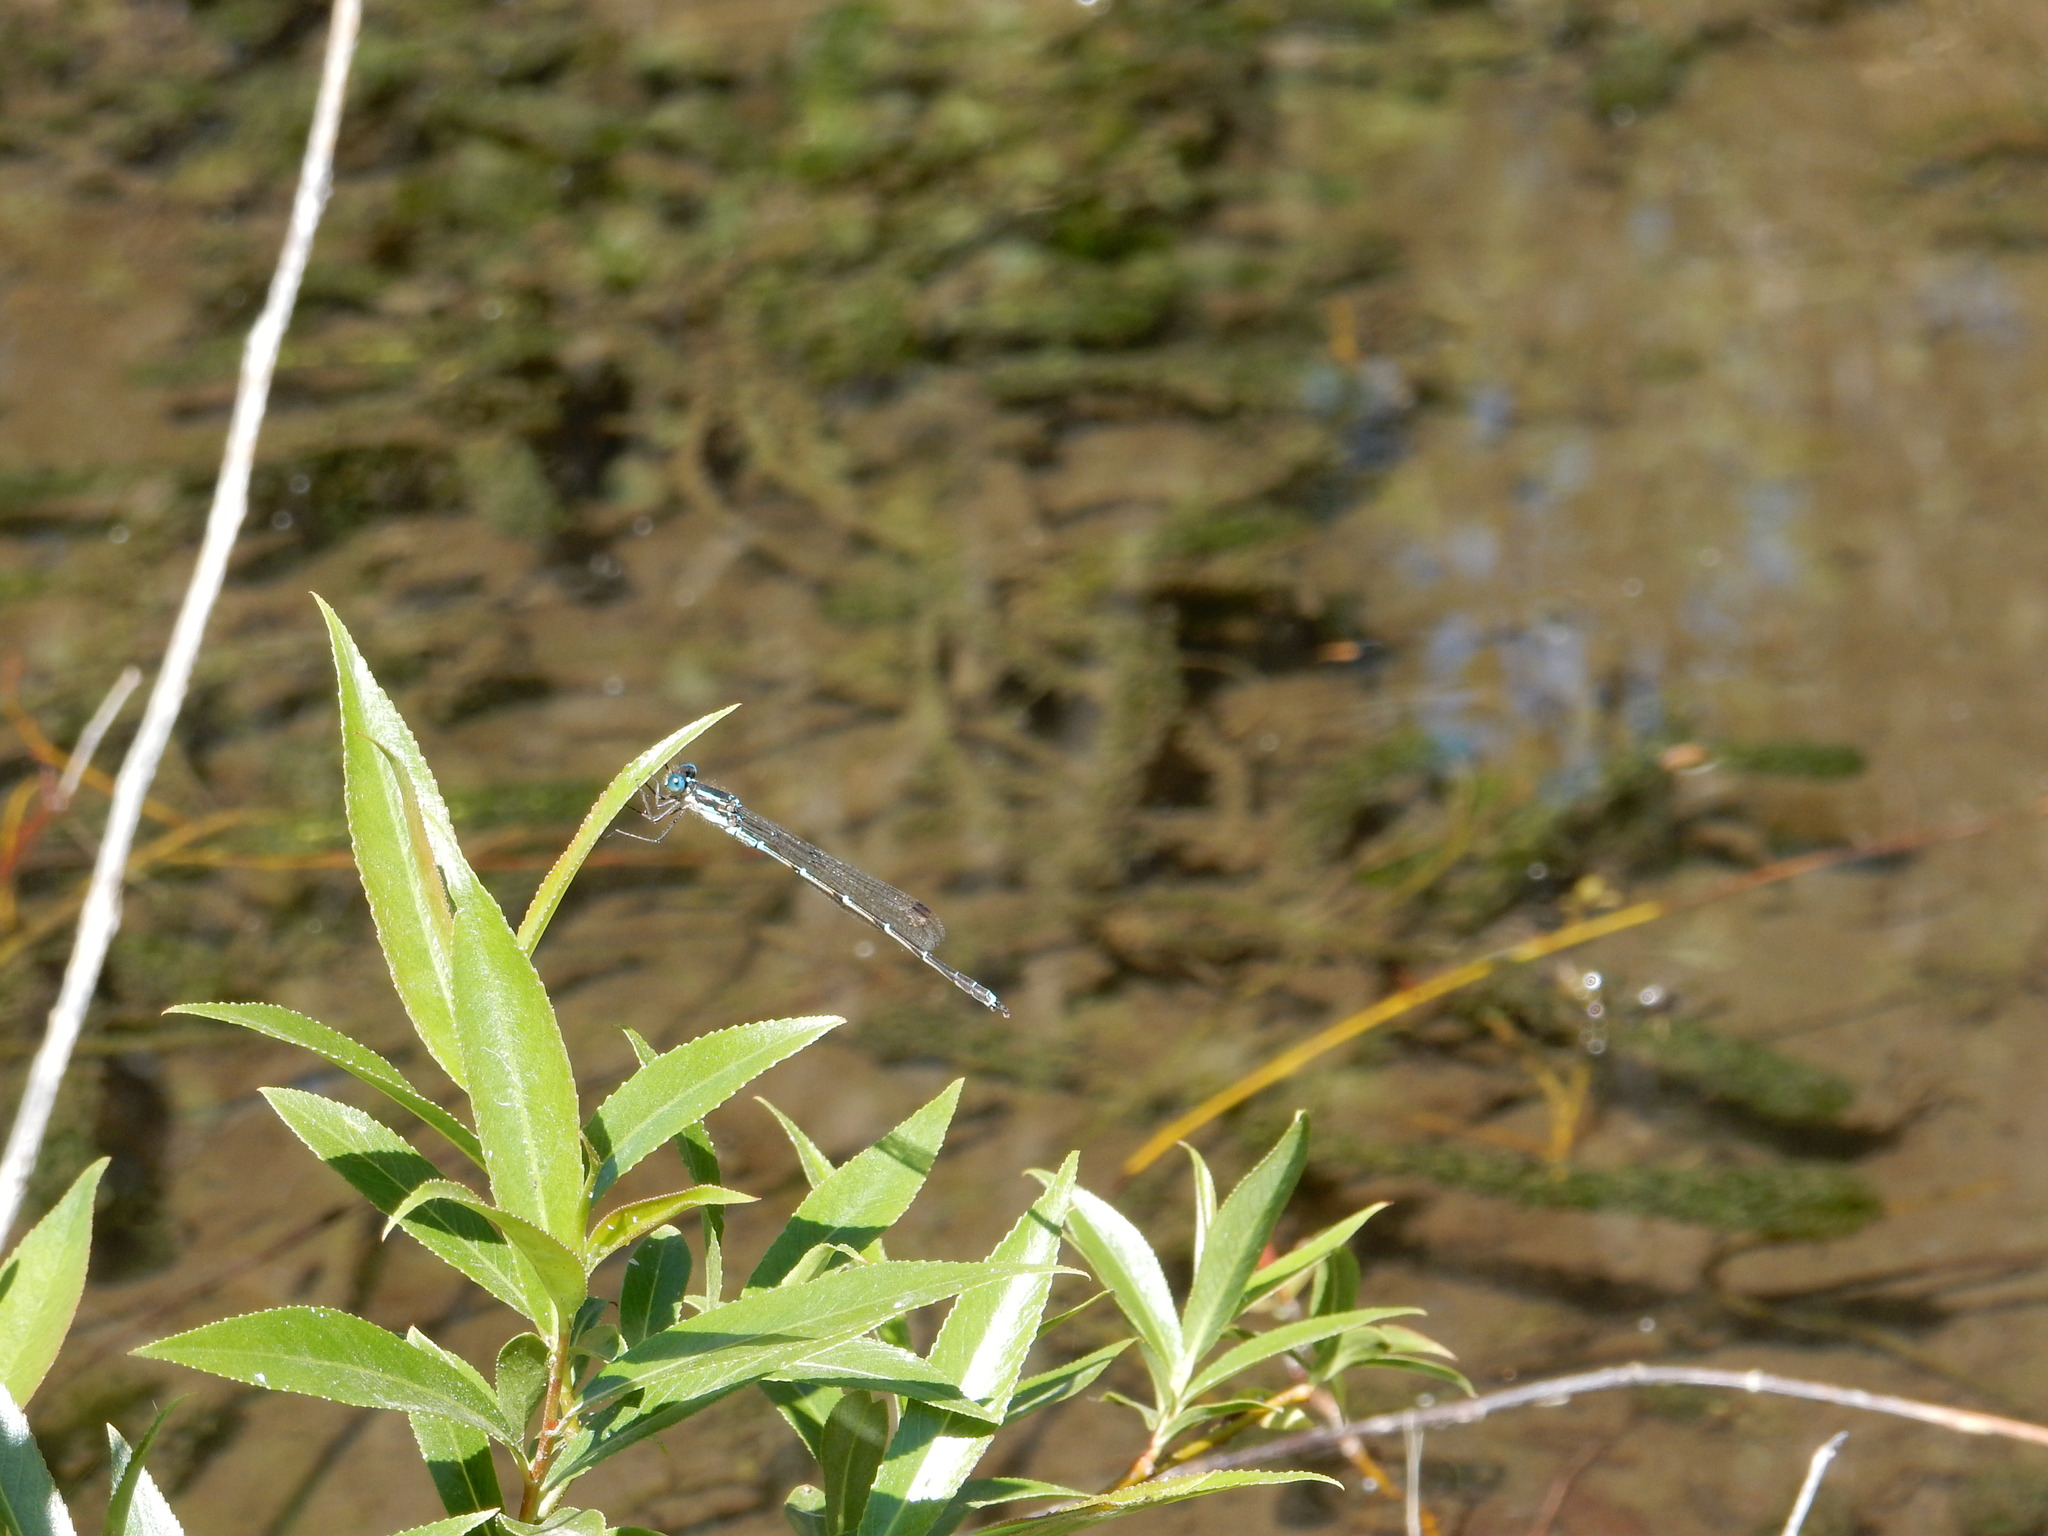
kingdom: Animalia
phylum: Arthropoda
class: Insecta
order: Odonata
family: Lestidae
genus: Austrolestes
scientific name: Austrolestes colensonis
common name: Blue damselfly
